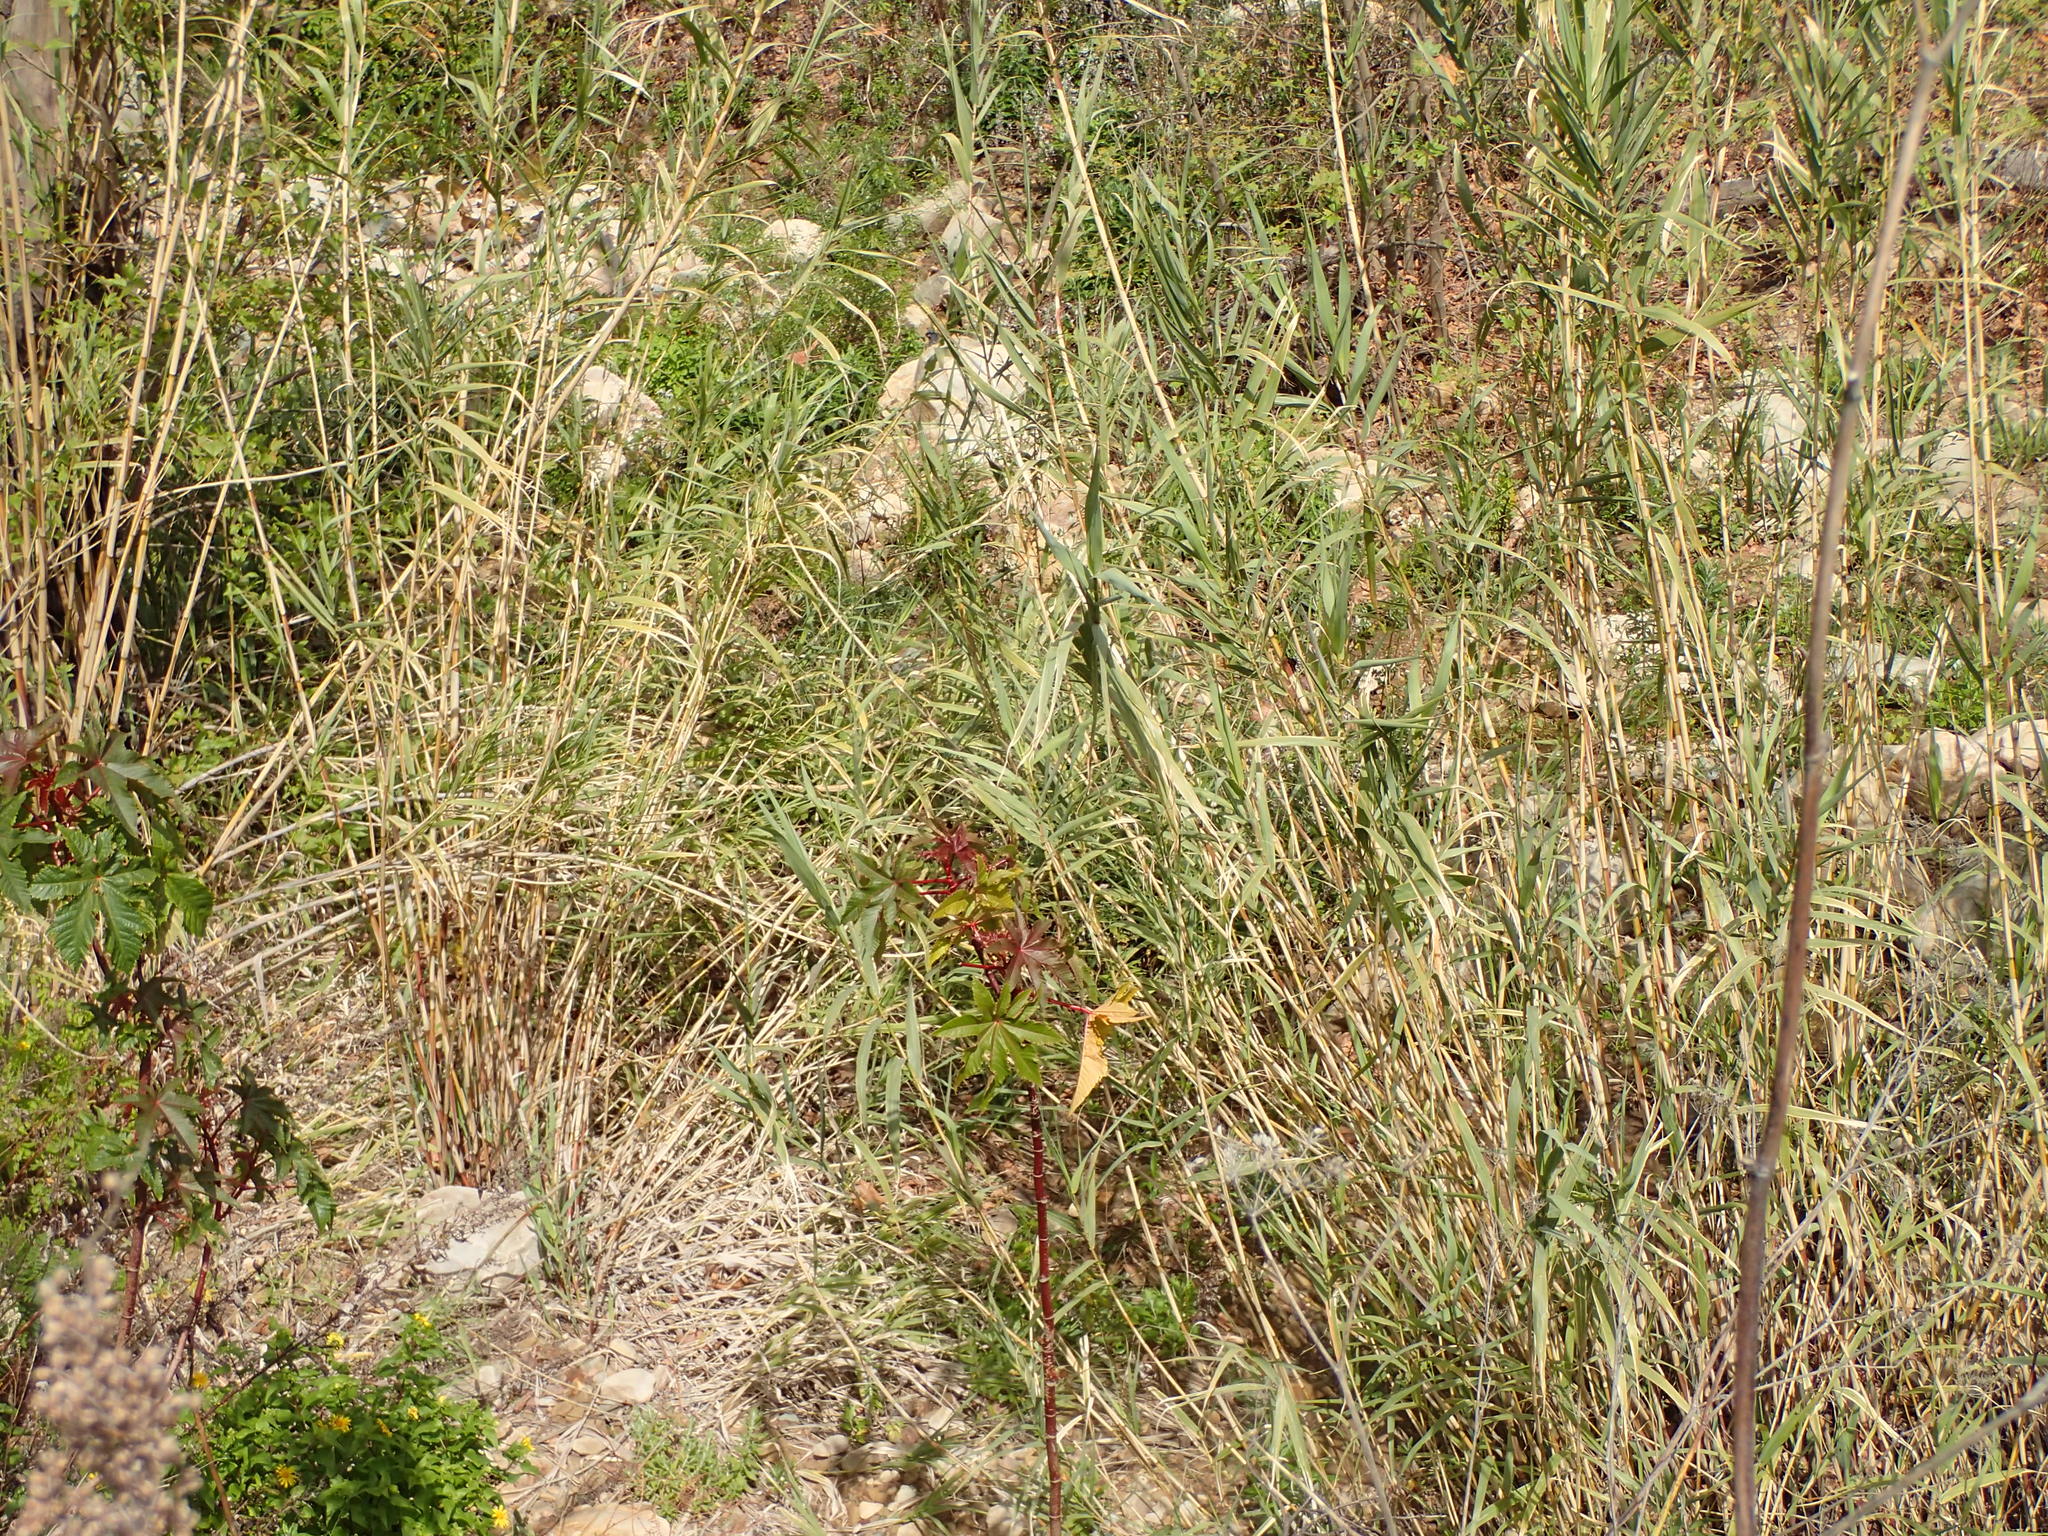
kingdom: Plantae
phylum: Tracheophyta
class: Liliopsida
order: Poales
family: Poaceae
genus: Arundo
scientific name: Arundo donax
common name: Giant reed
